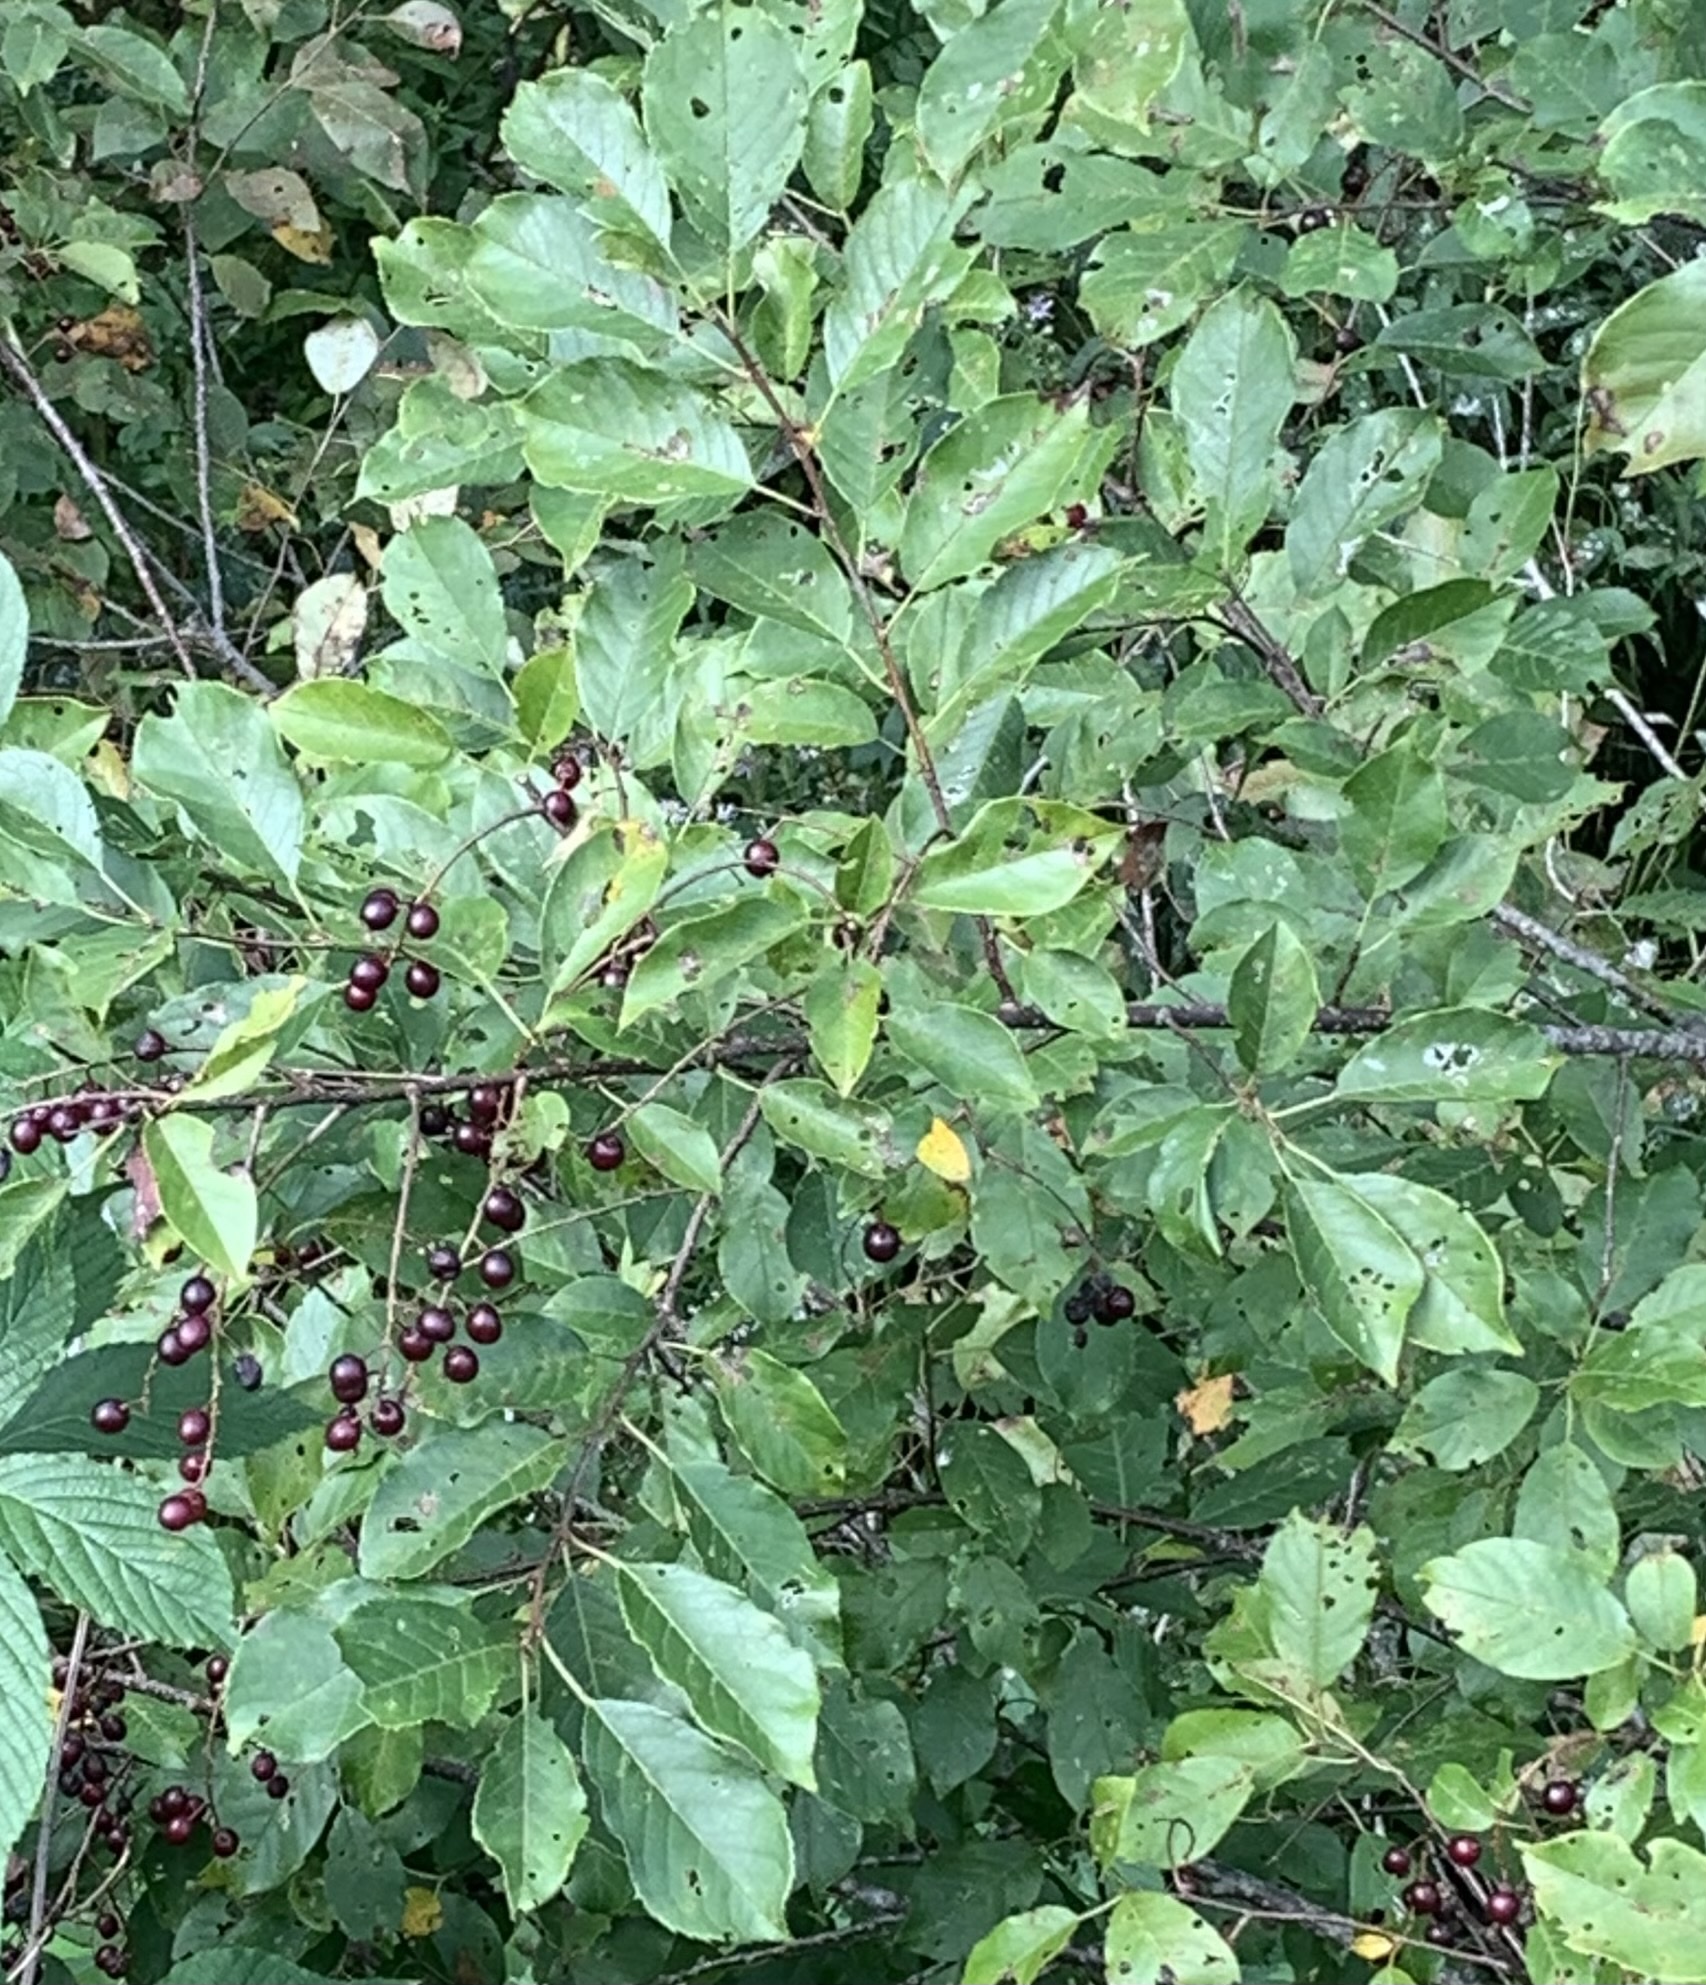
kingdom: Plantae
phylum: Tracheophyta
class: Magnoliopsida
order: Rosales
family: Rosaceae
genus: Prunus
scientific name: Prunus virginiana
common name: Chokecherry
